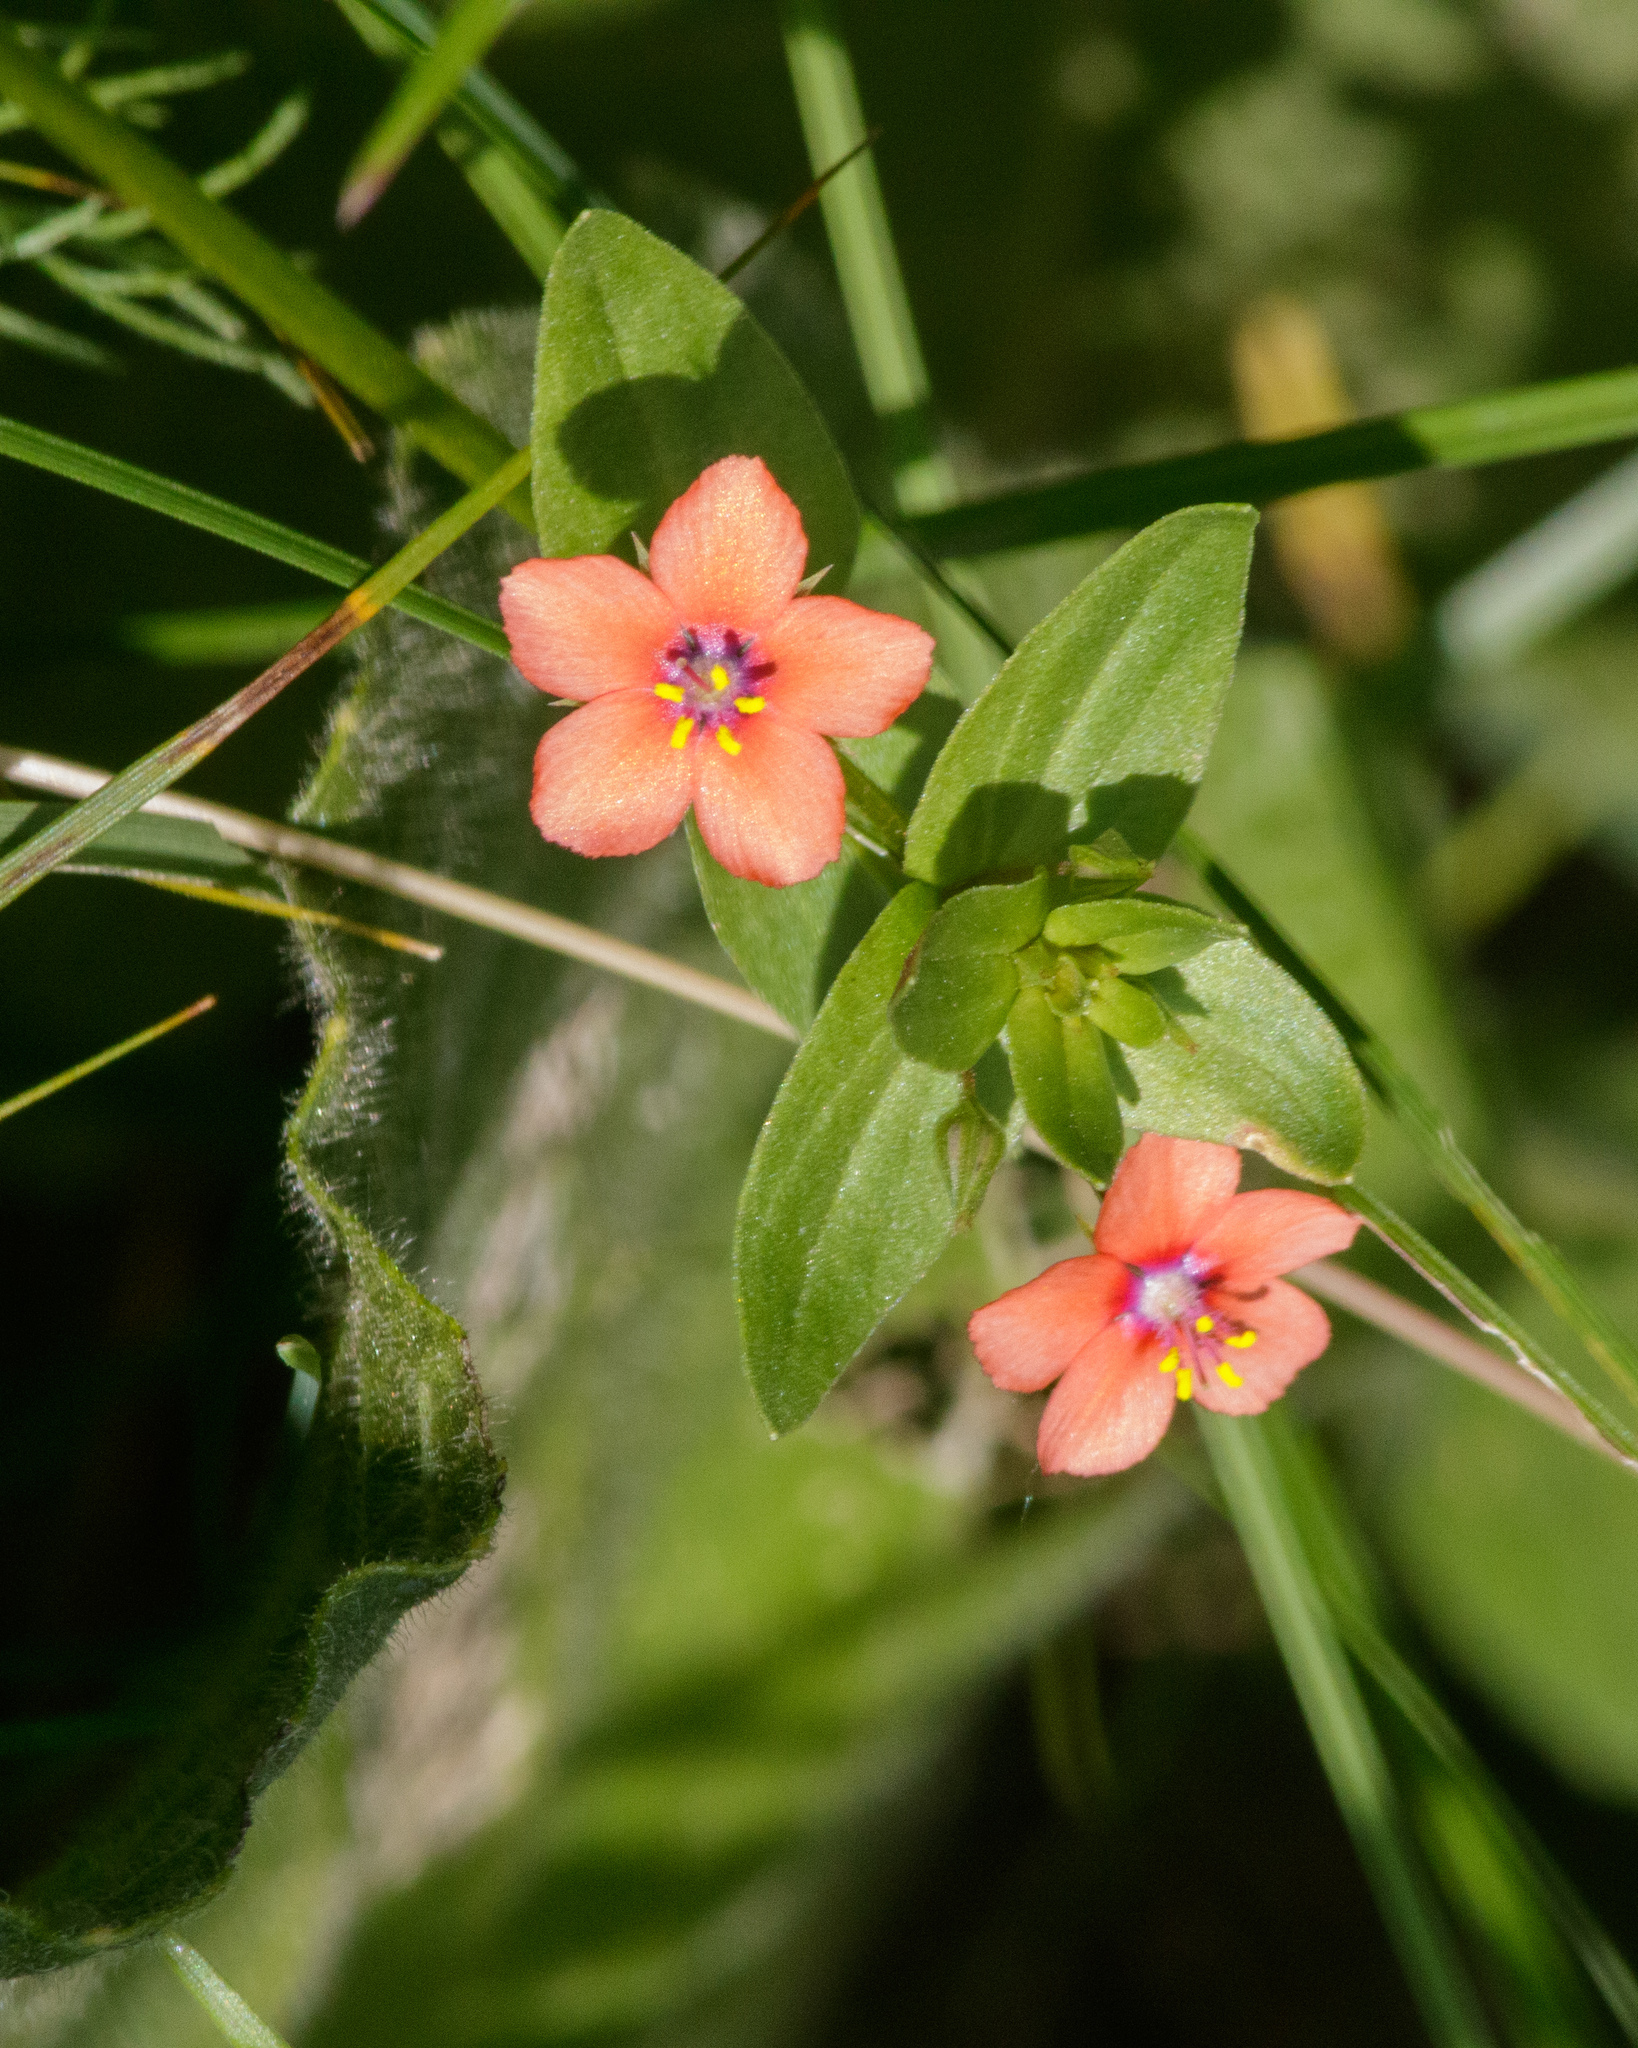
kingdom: Plantae
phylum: Tracheophyta
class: Magnoliopsida
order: Ericales
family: Primulaceae
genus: Lysimachia
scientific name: Lysimachia arvensis
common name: Scarlet pimpernel
